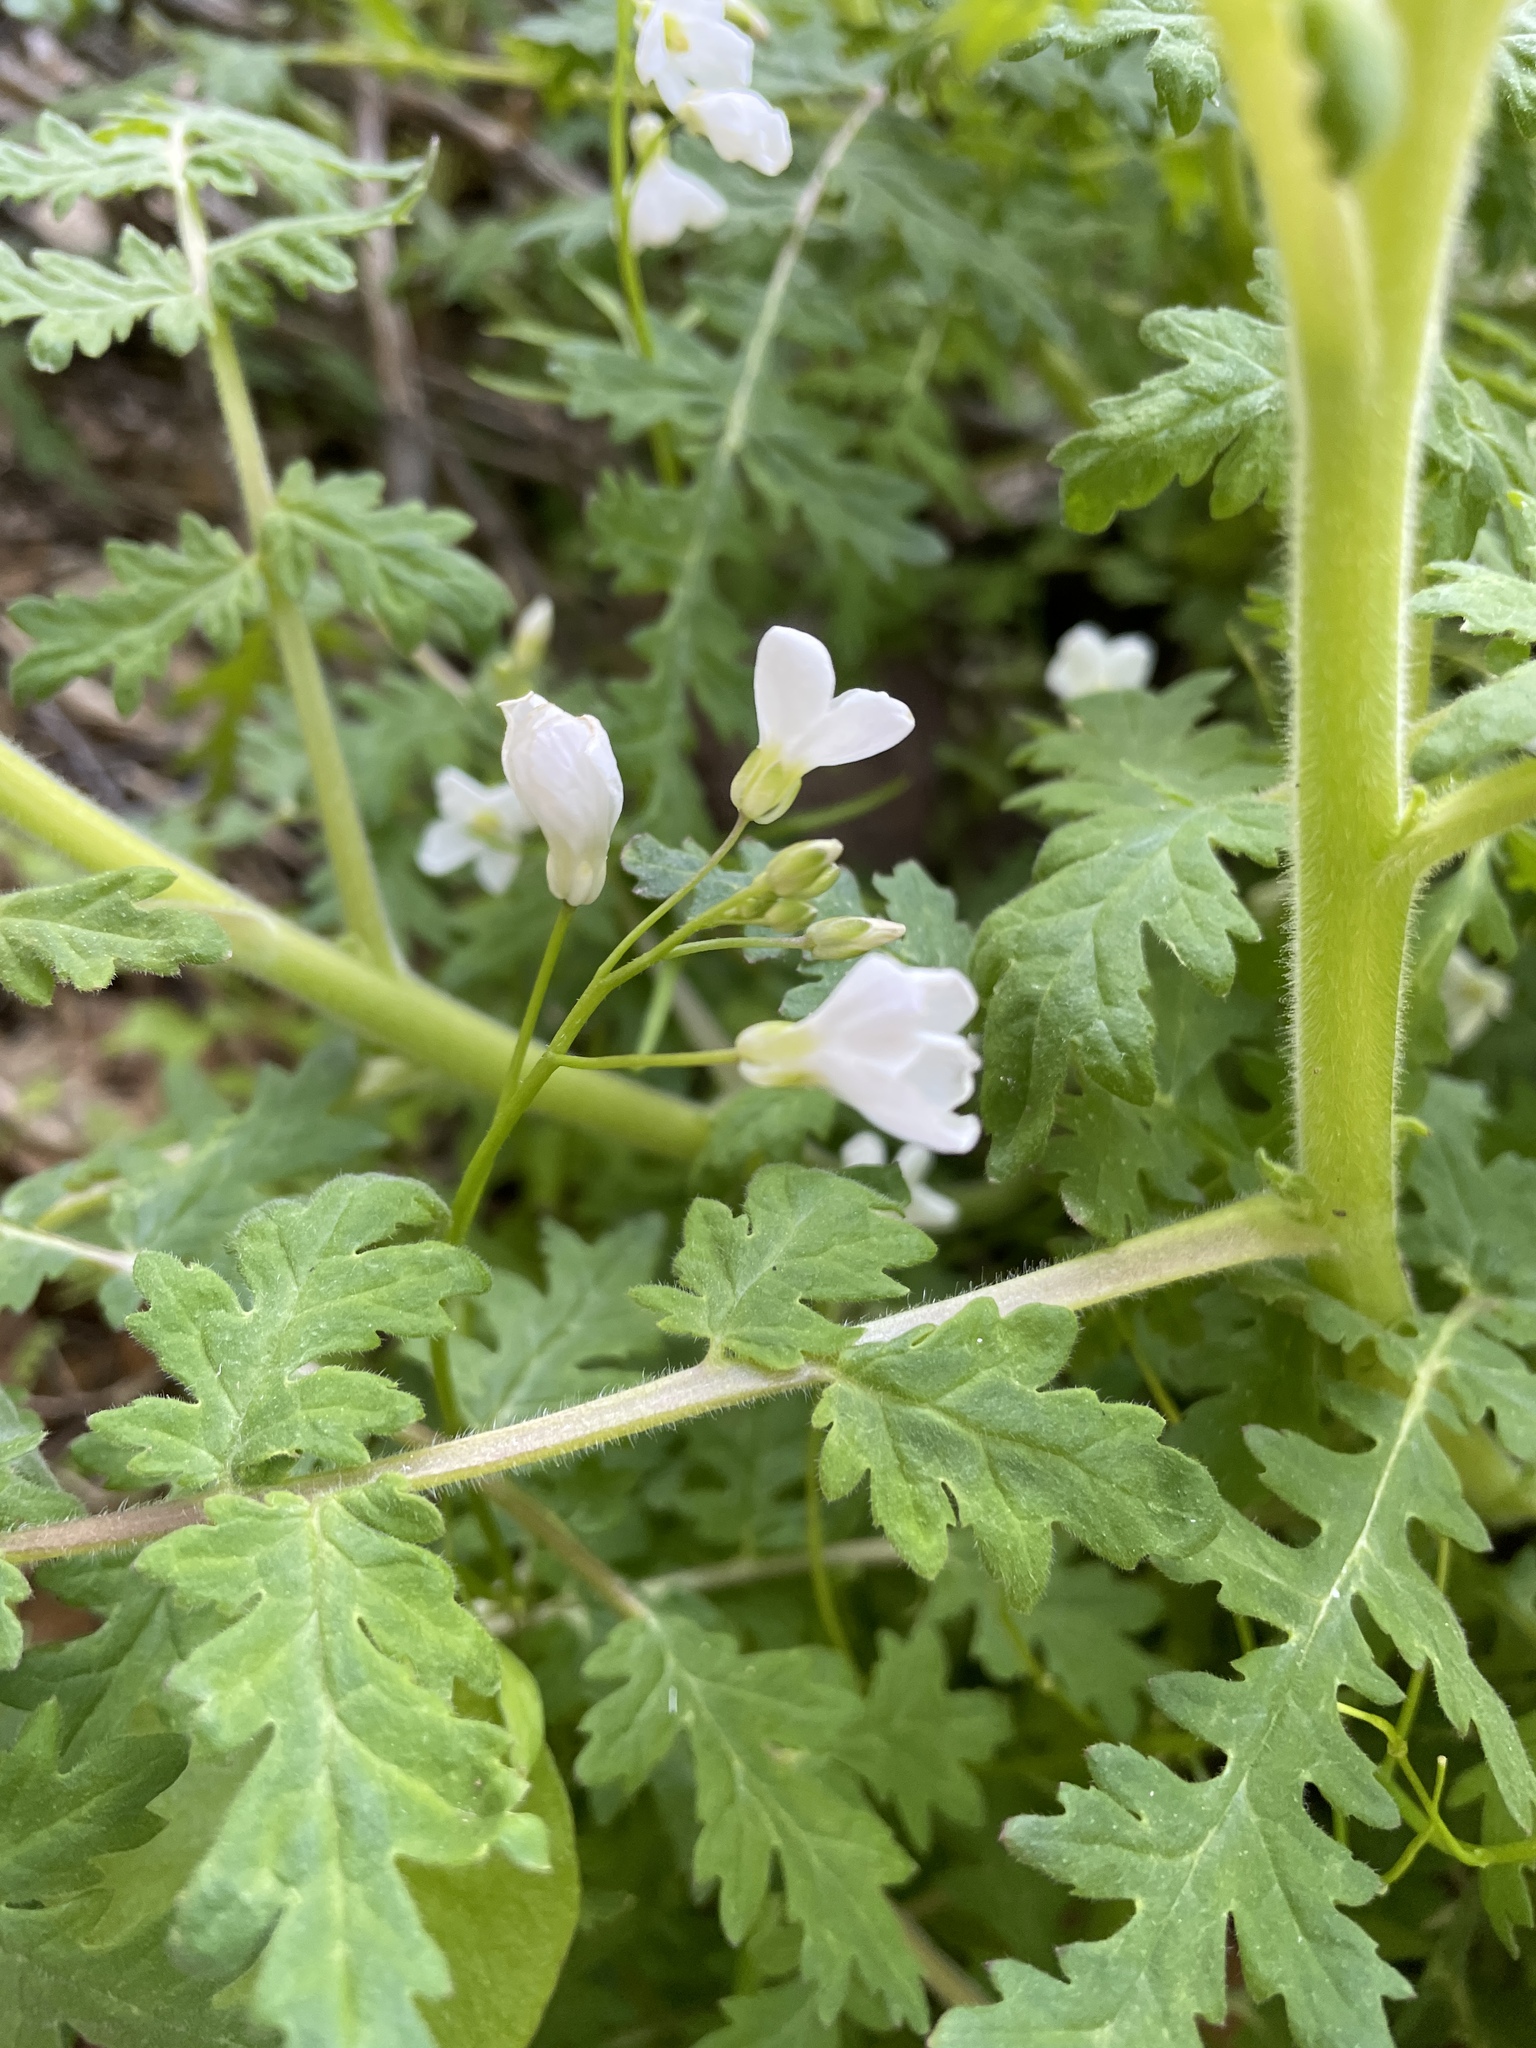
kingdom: Plantae
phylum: Tracheophyta
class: Magnoliopsida
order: Brassicales
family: Brassicaceae
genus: Cardamine
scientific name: Cardamine californica
